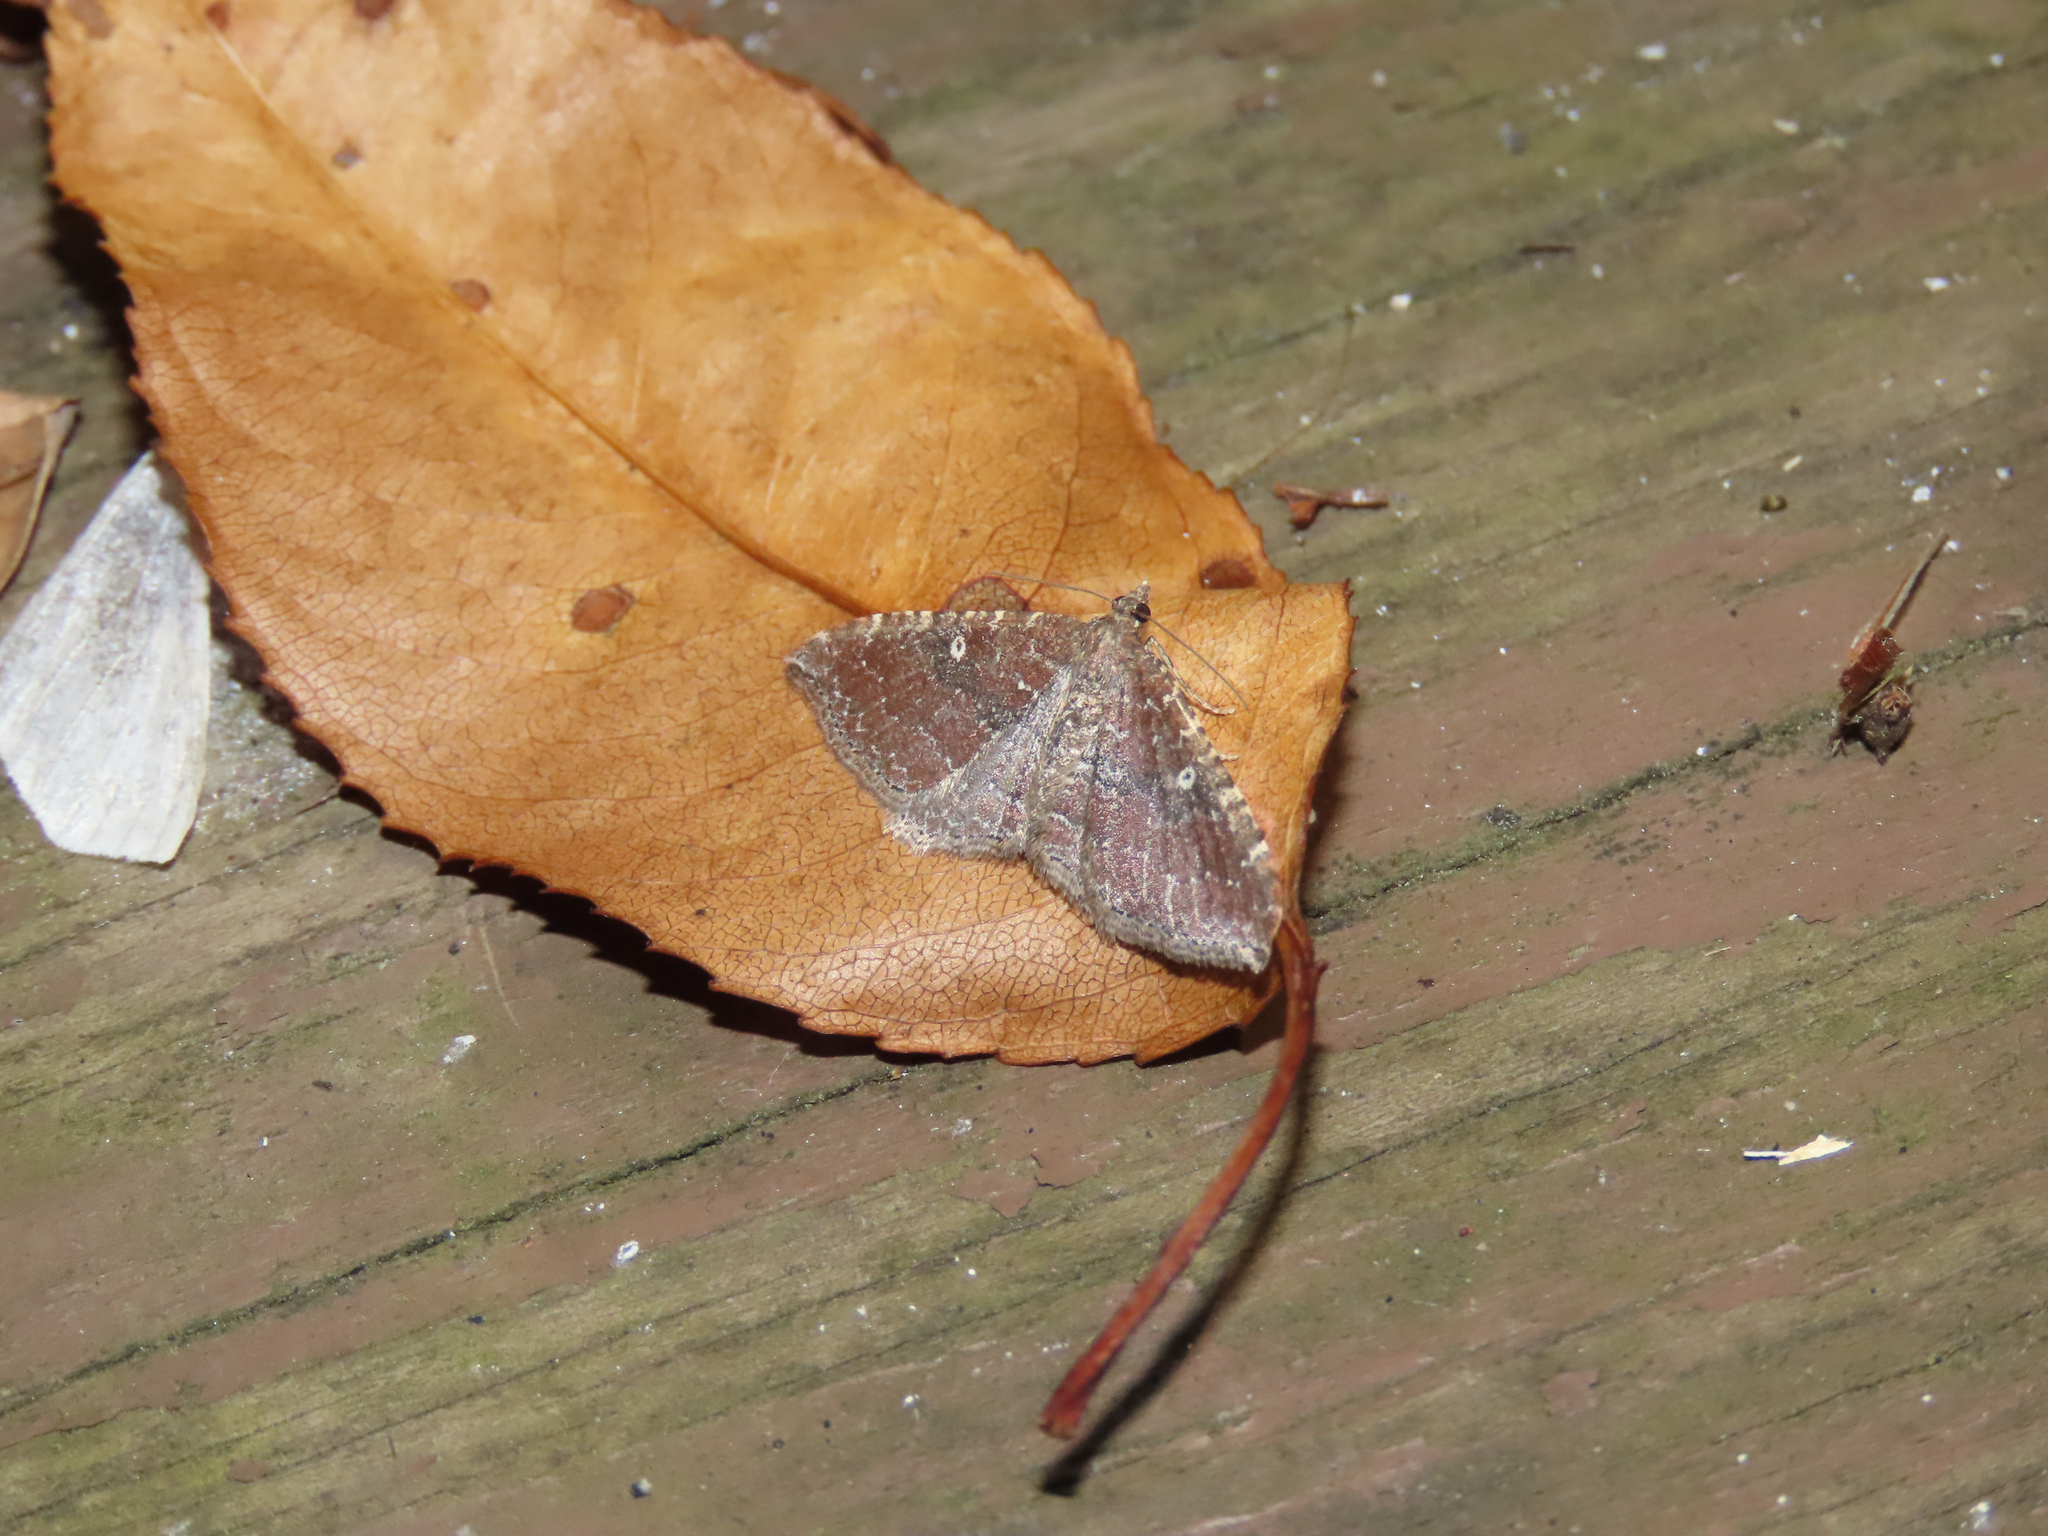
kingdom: Animalia
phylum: Arthropoda
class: Insecta
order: Lepidoptera
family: Geometridae
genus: Orthonama
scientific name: Orthonama obstipata
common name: The gem
